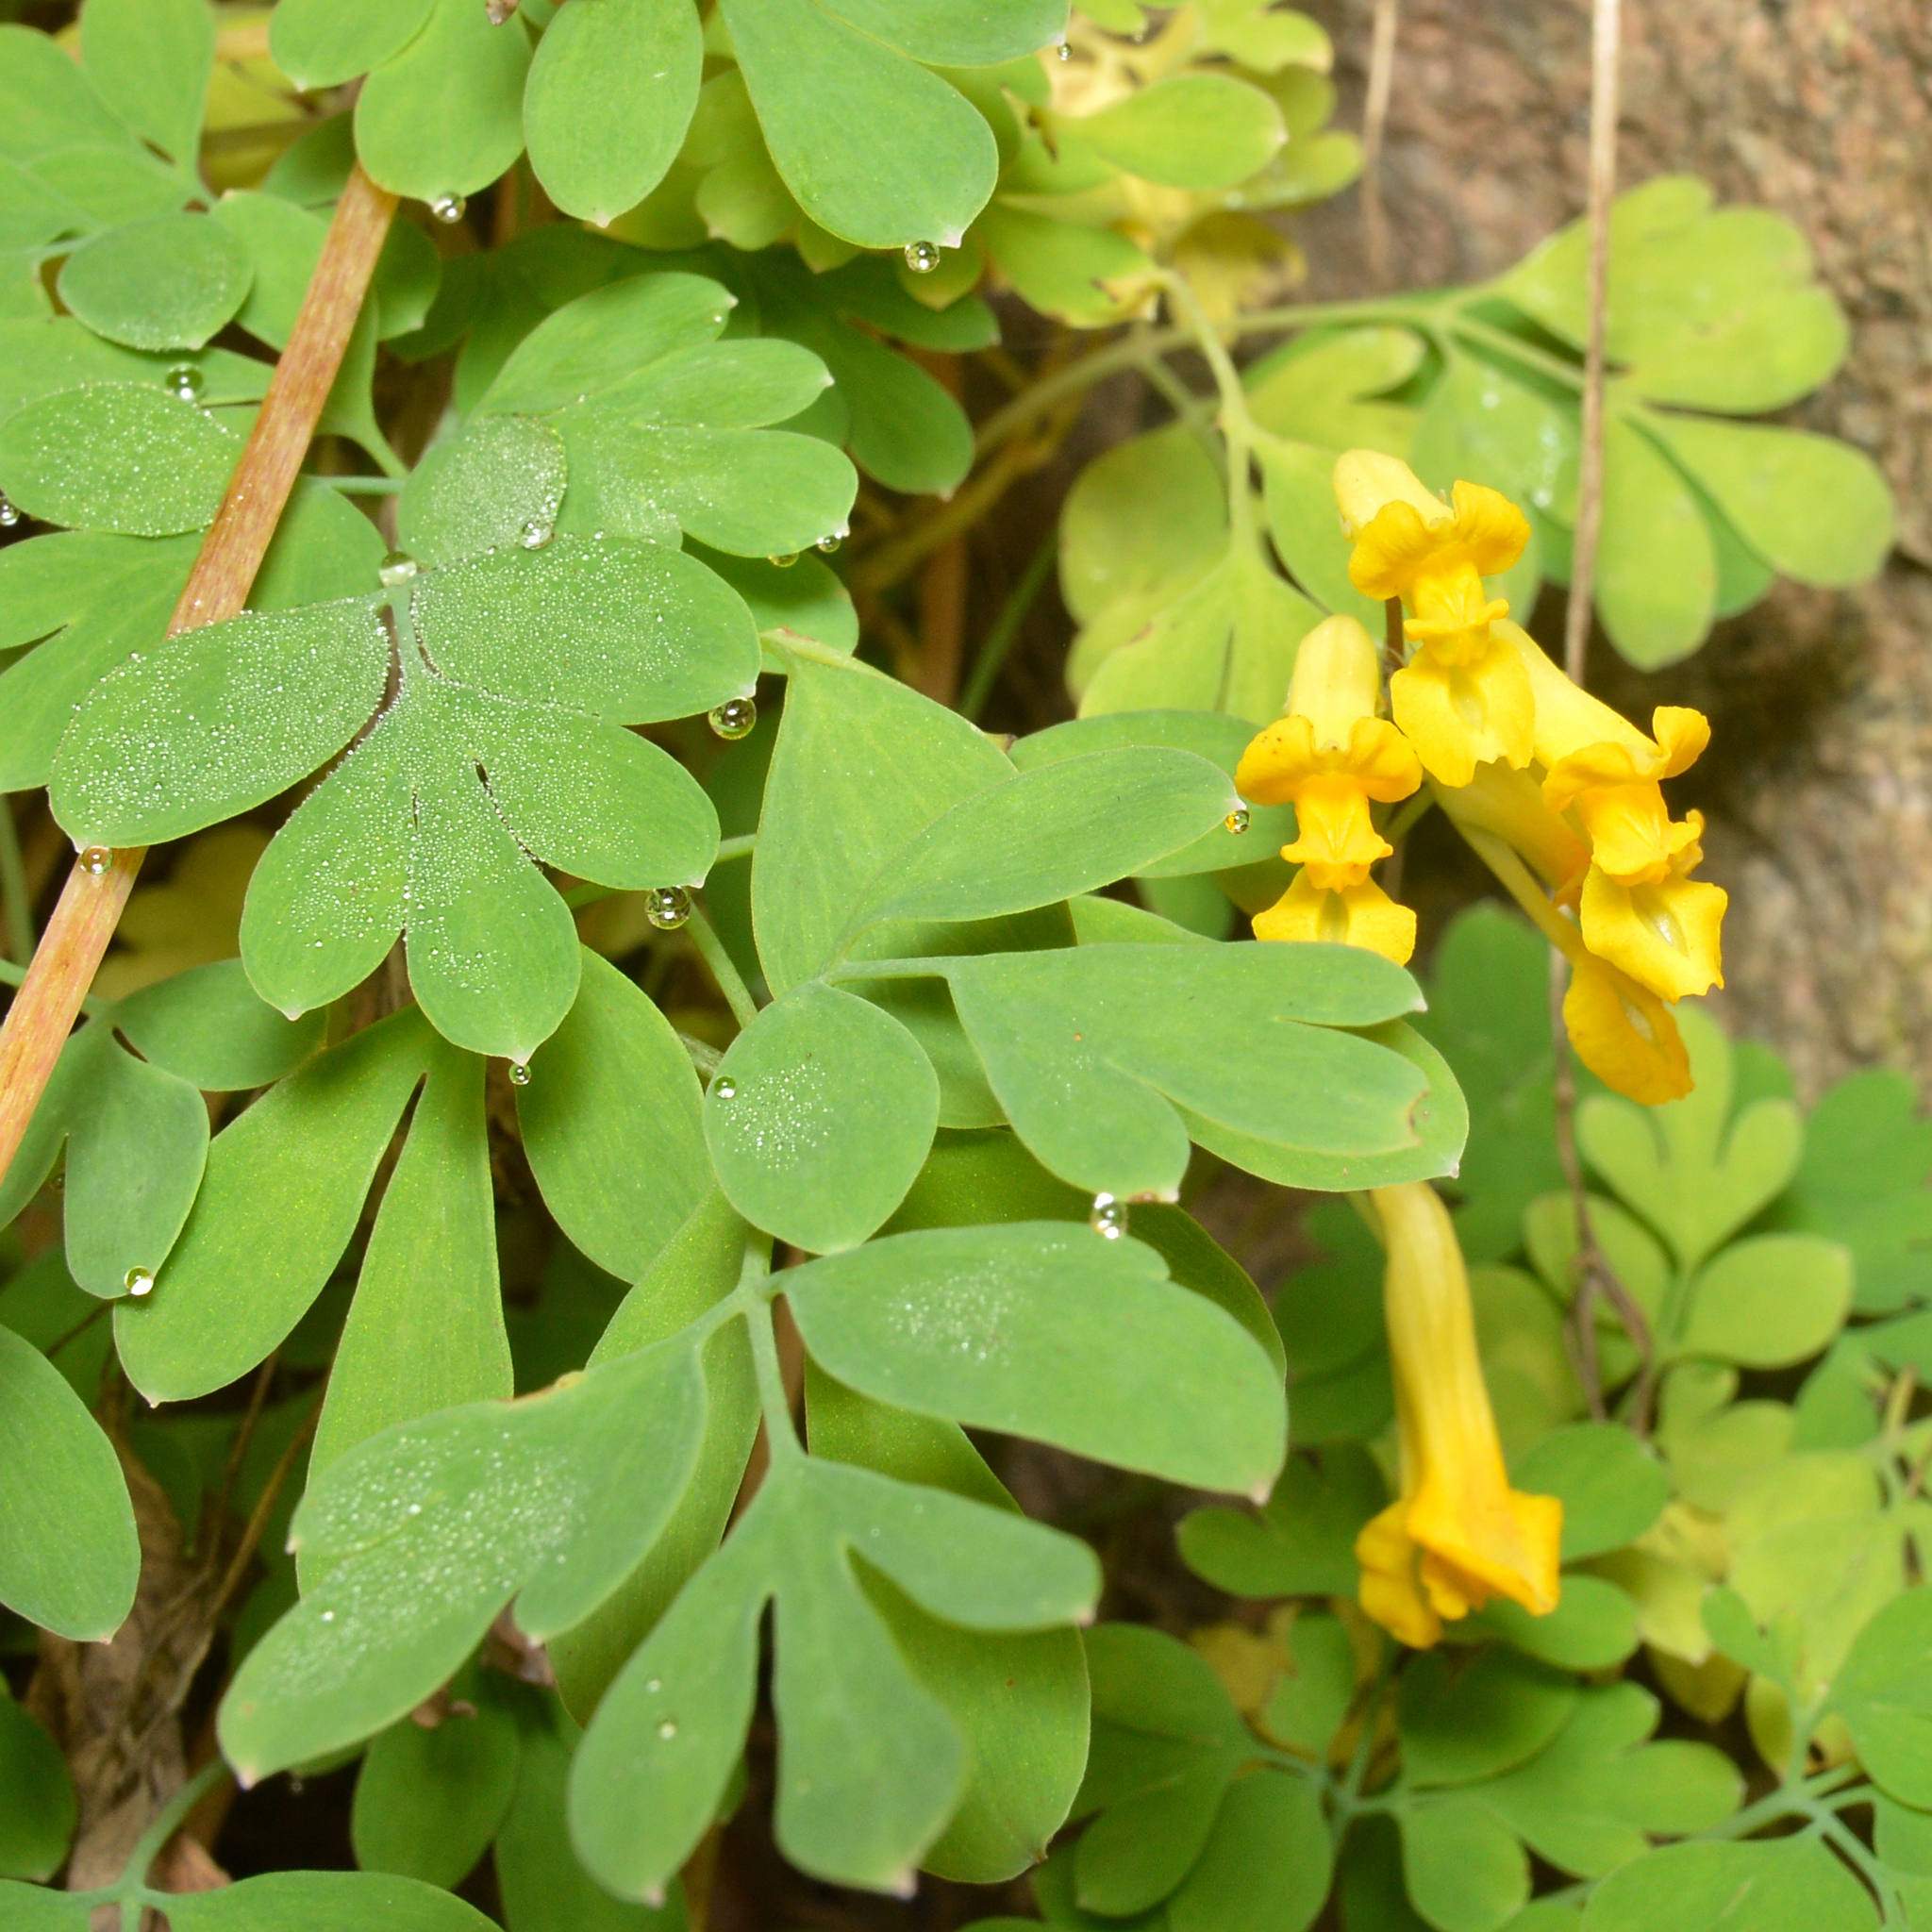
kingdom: Plantae
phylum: Tracheophyta
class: Magnoliopsida
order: Ranunculales
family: Papaveraceae
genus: Pseudofumaria
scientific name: Pseudofumaria lutea
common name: Yellow corydalis
